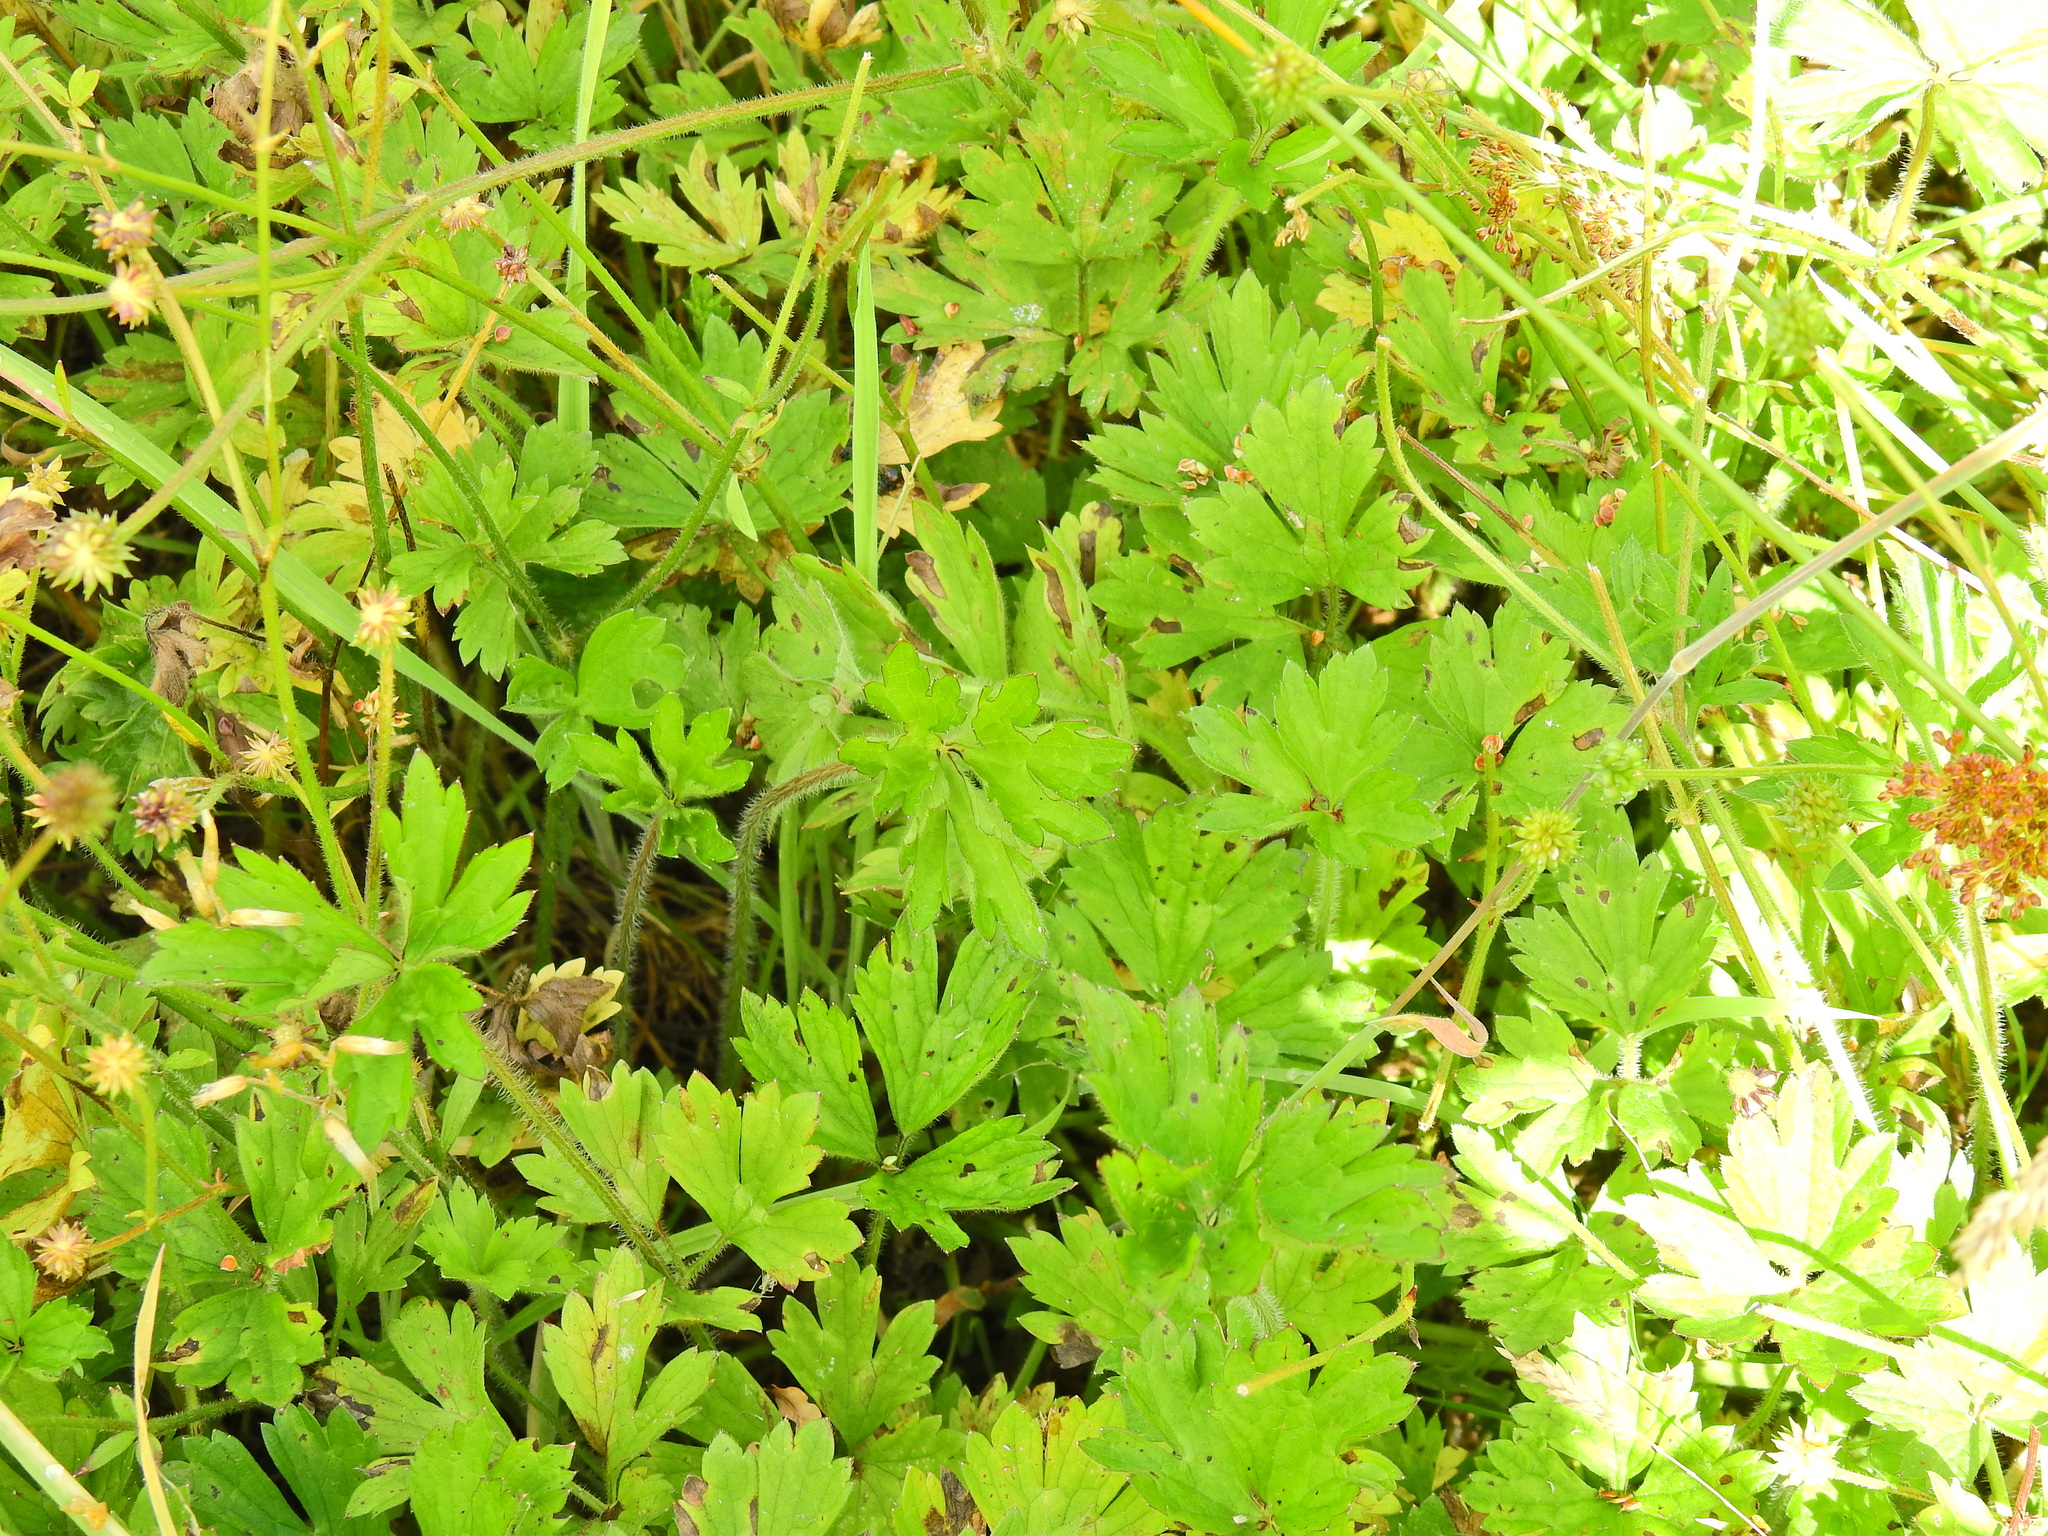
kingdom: Plantae
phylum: Tracheophyta
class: Magnoliopsida
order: Ranunculales
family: Ranunculaceae
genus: Ranunculus
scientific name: Ranunculus repens
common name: Creeping buttercup
